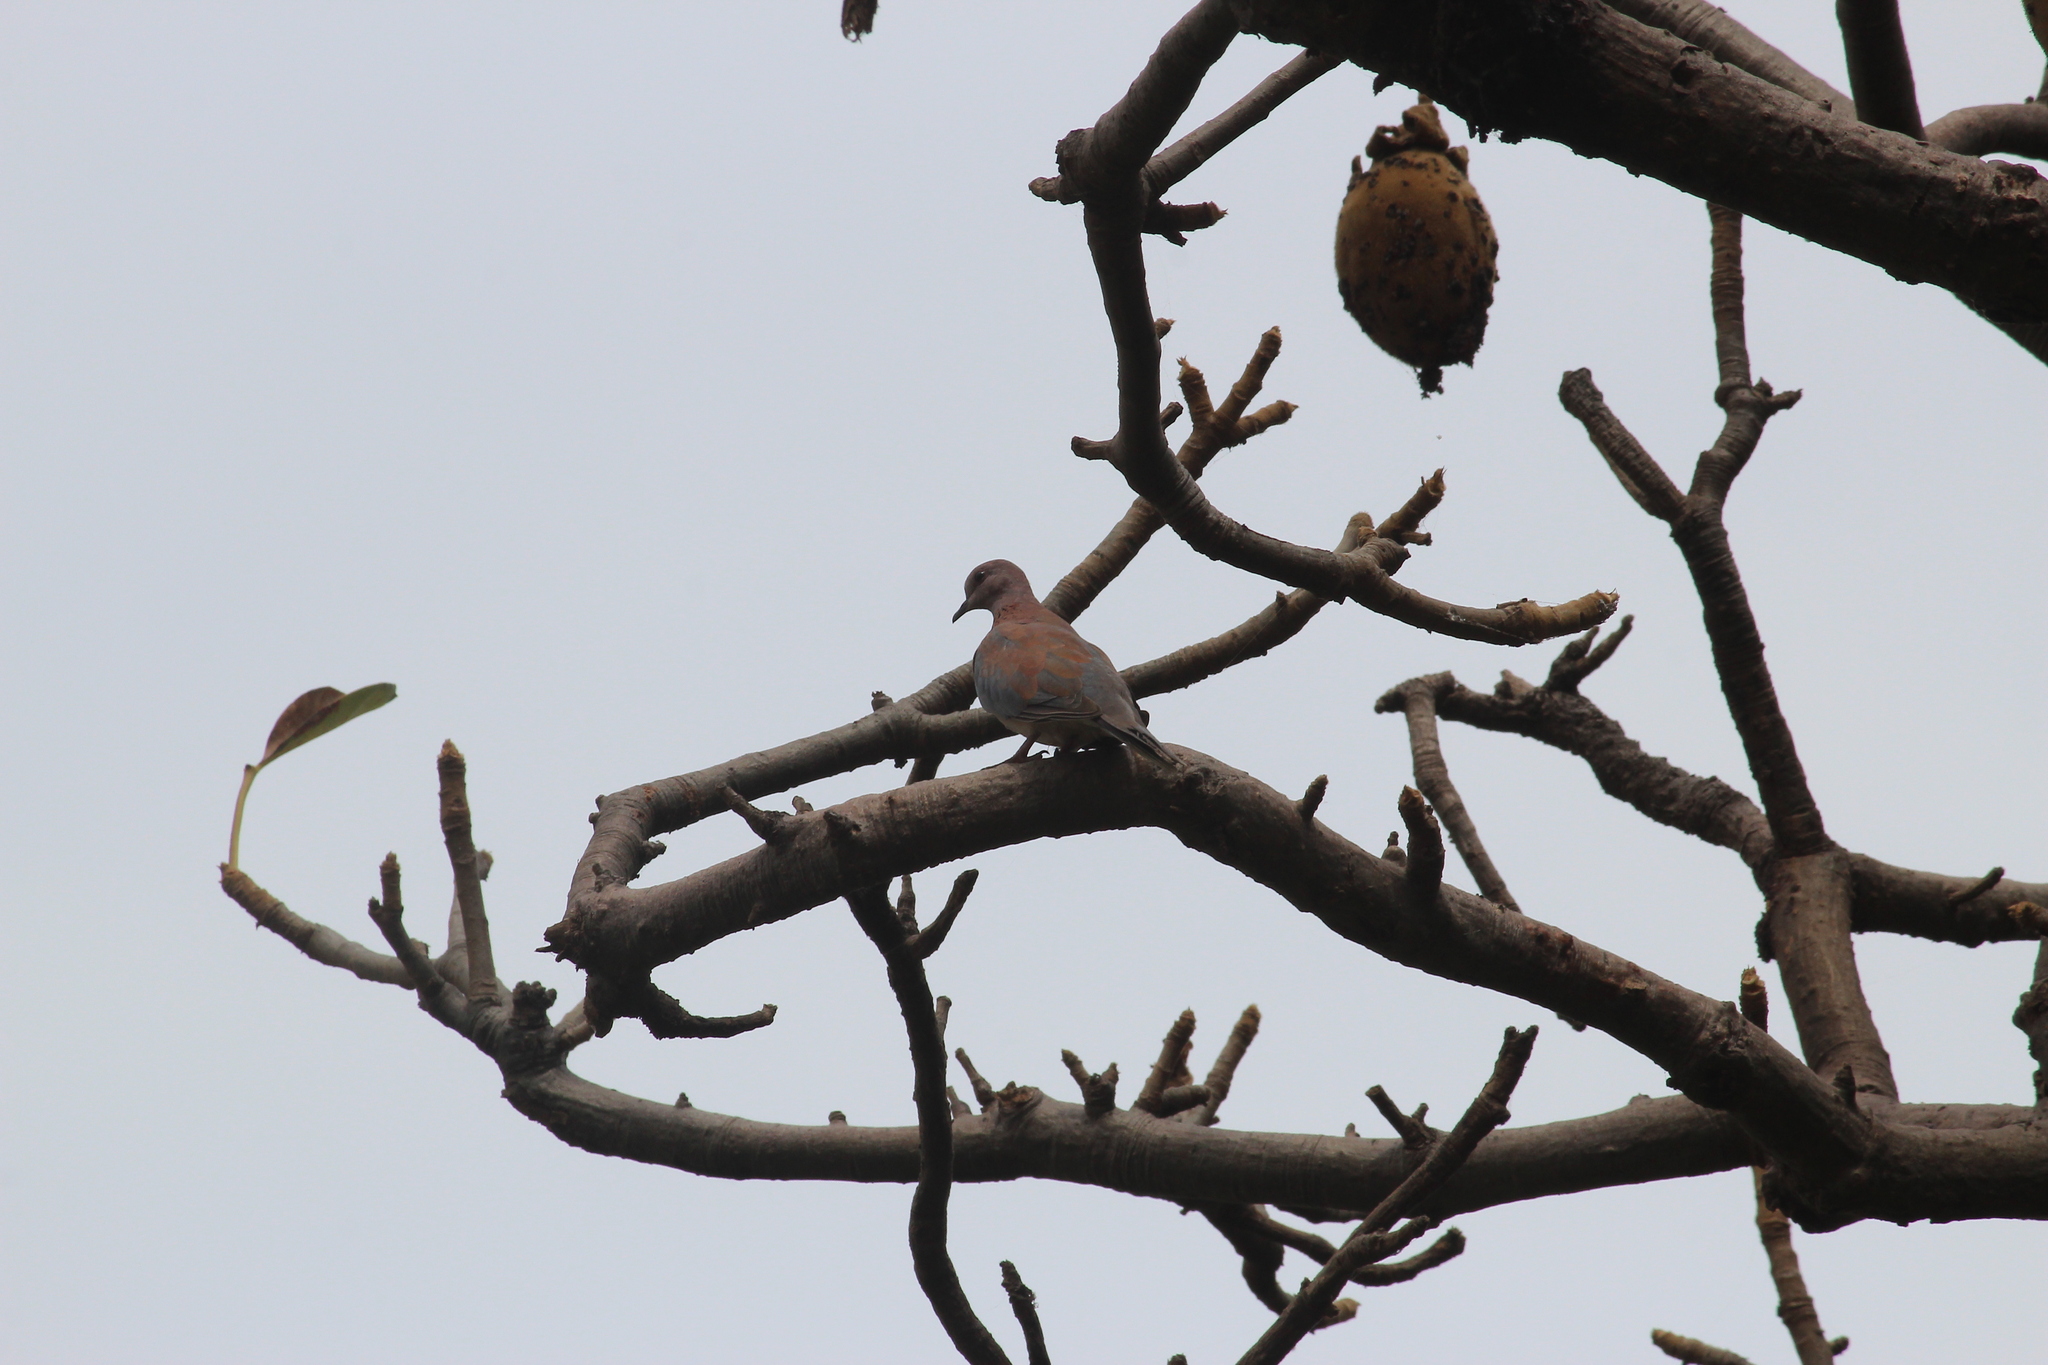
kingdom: Animalia
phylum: Chordata
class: Aves
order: Columbiformes
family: Columbidae
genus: Spilopelia
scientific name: Spilopelia senegalensis
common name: Laughing dove
